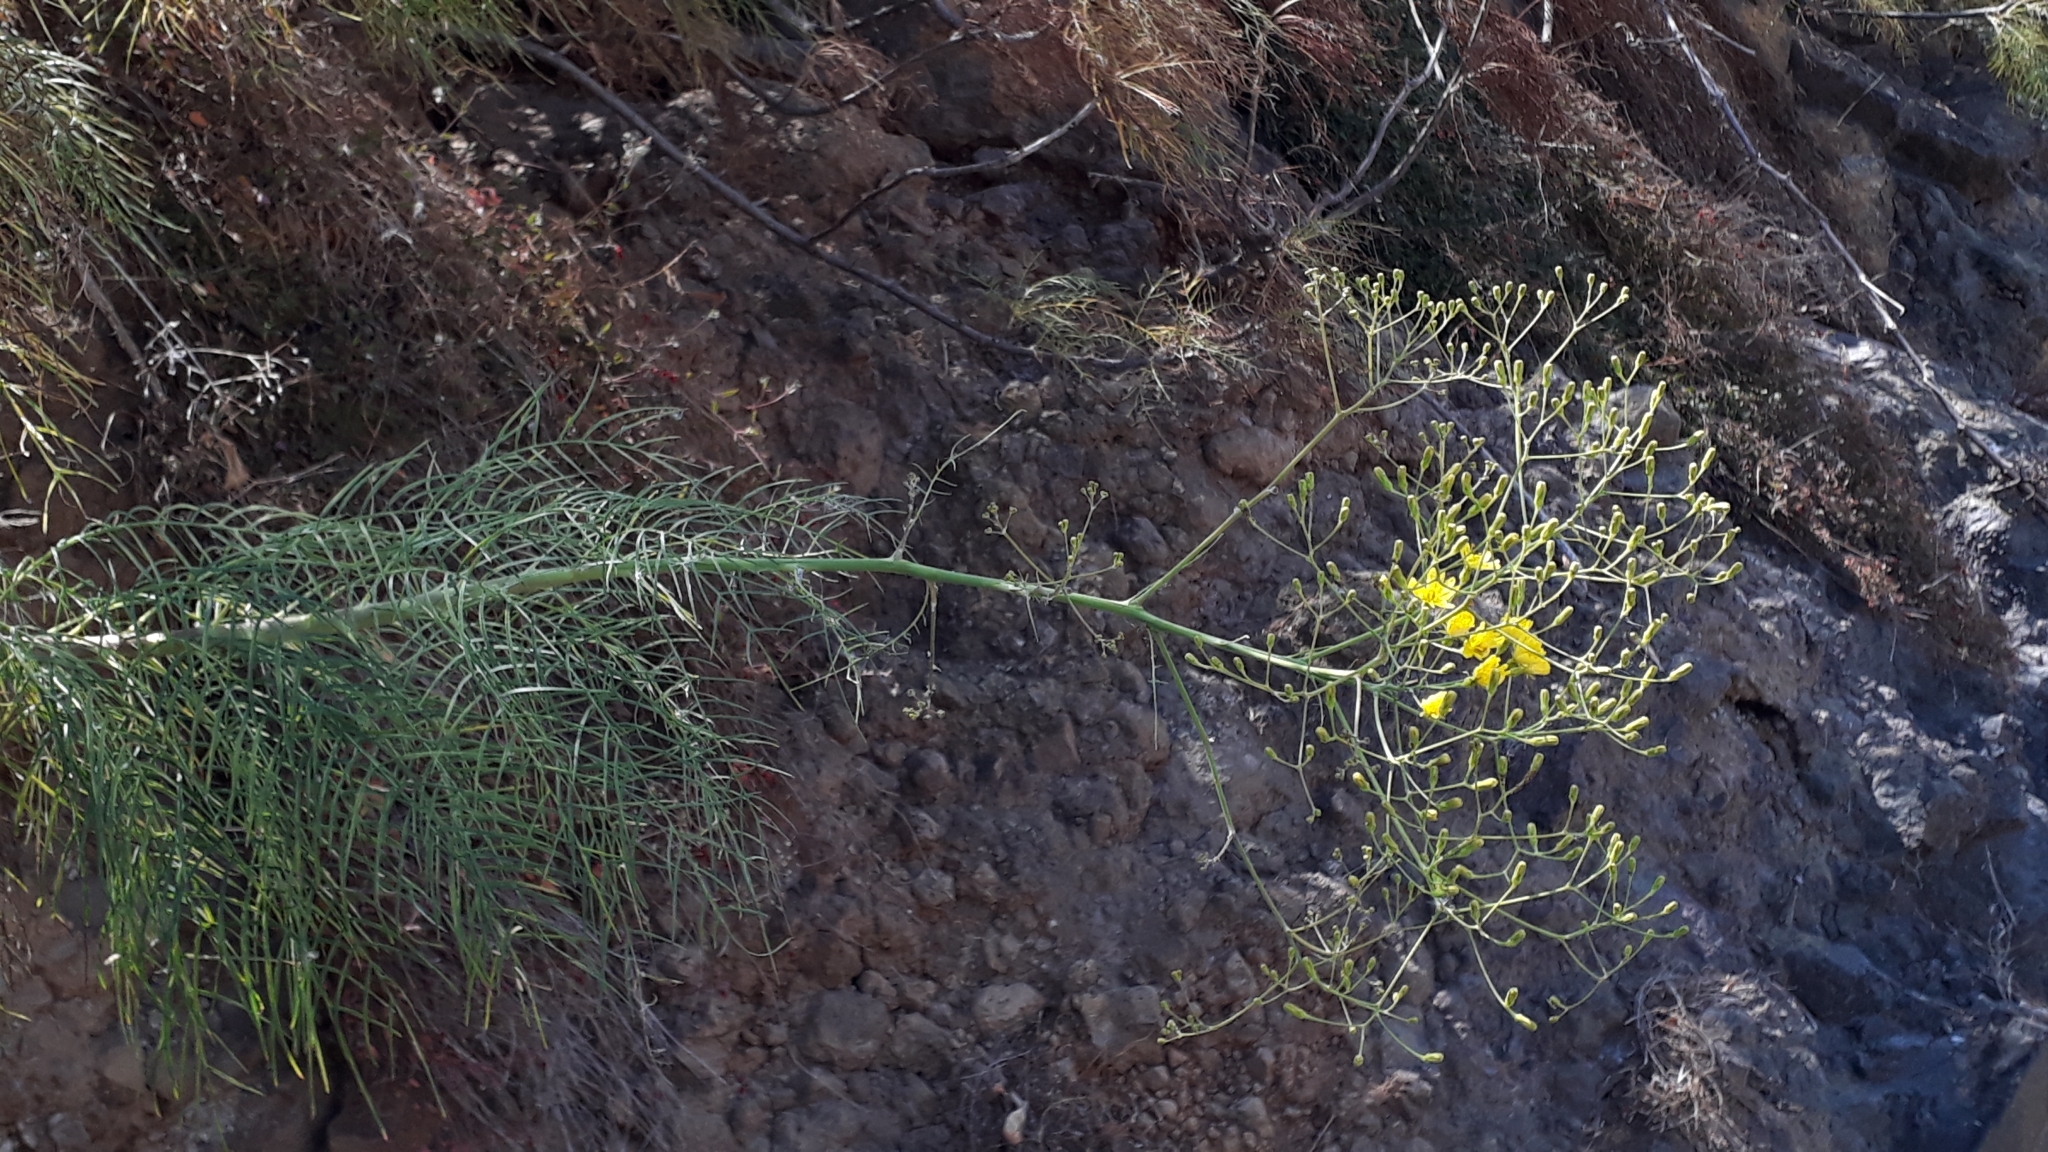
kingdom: Plantae
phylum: Tracheophyta
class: Magnoliopsida
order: Asterales
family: Asteraceae
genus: Sonchus
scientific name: Sonchus leptocephalus
